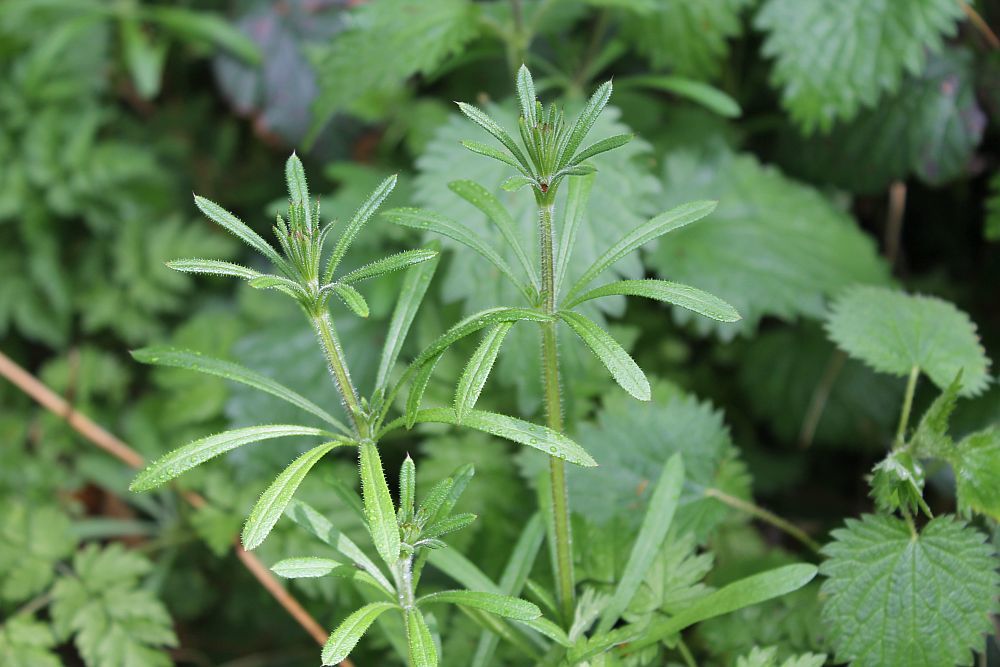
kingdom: Plantae
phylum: Tracheophyta
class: Magnoliopsida
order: Gentianales
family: Rubiaceae
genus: Galium
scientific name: Galium aparine
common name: Cleavers
